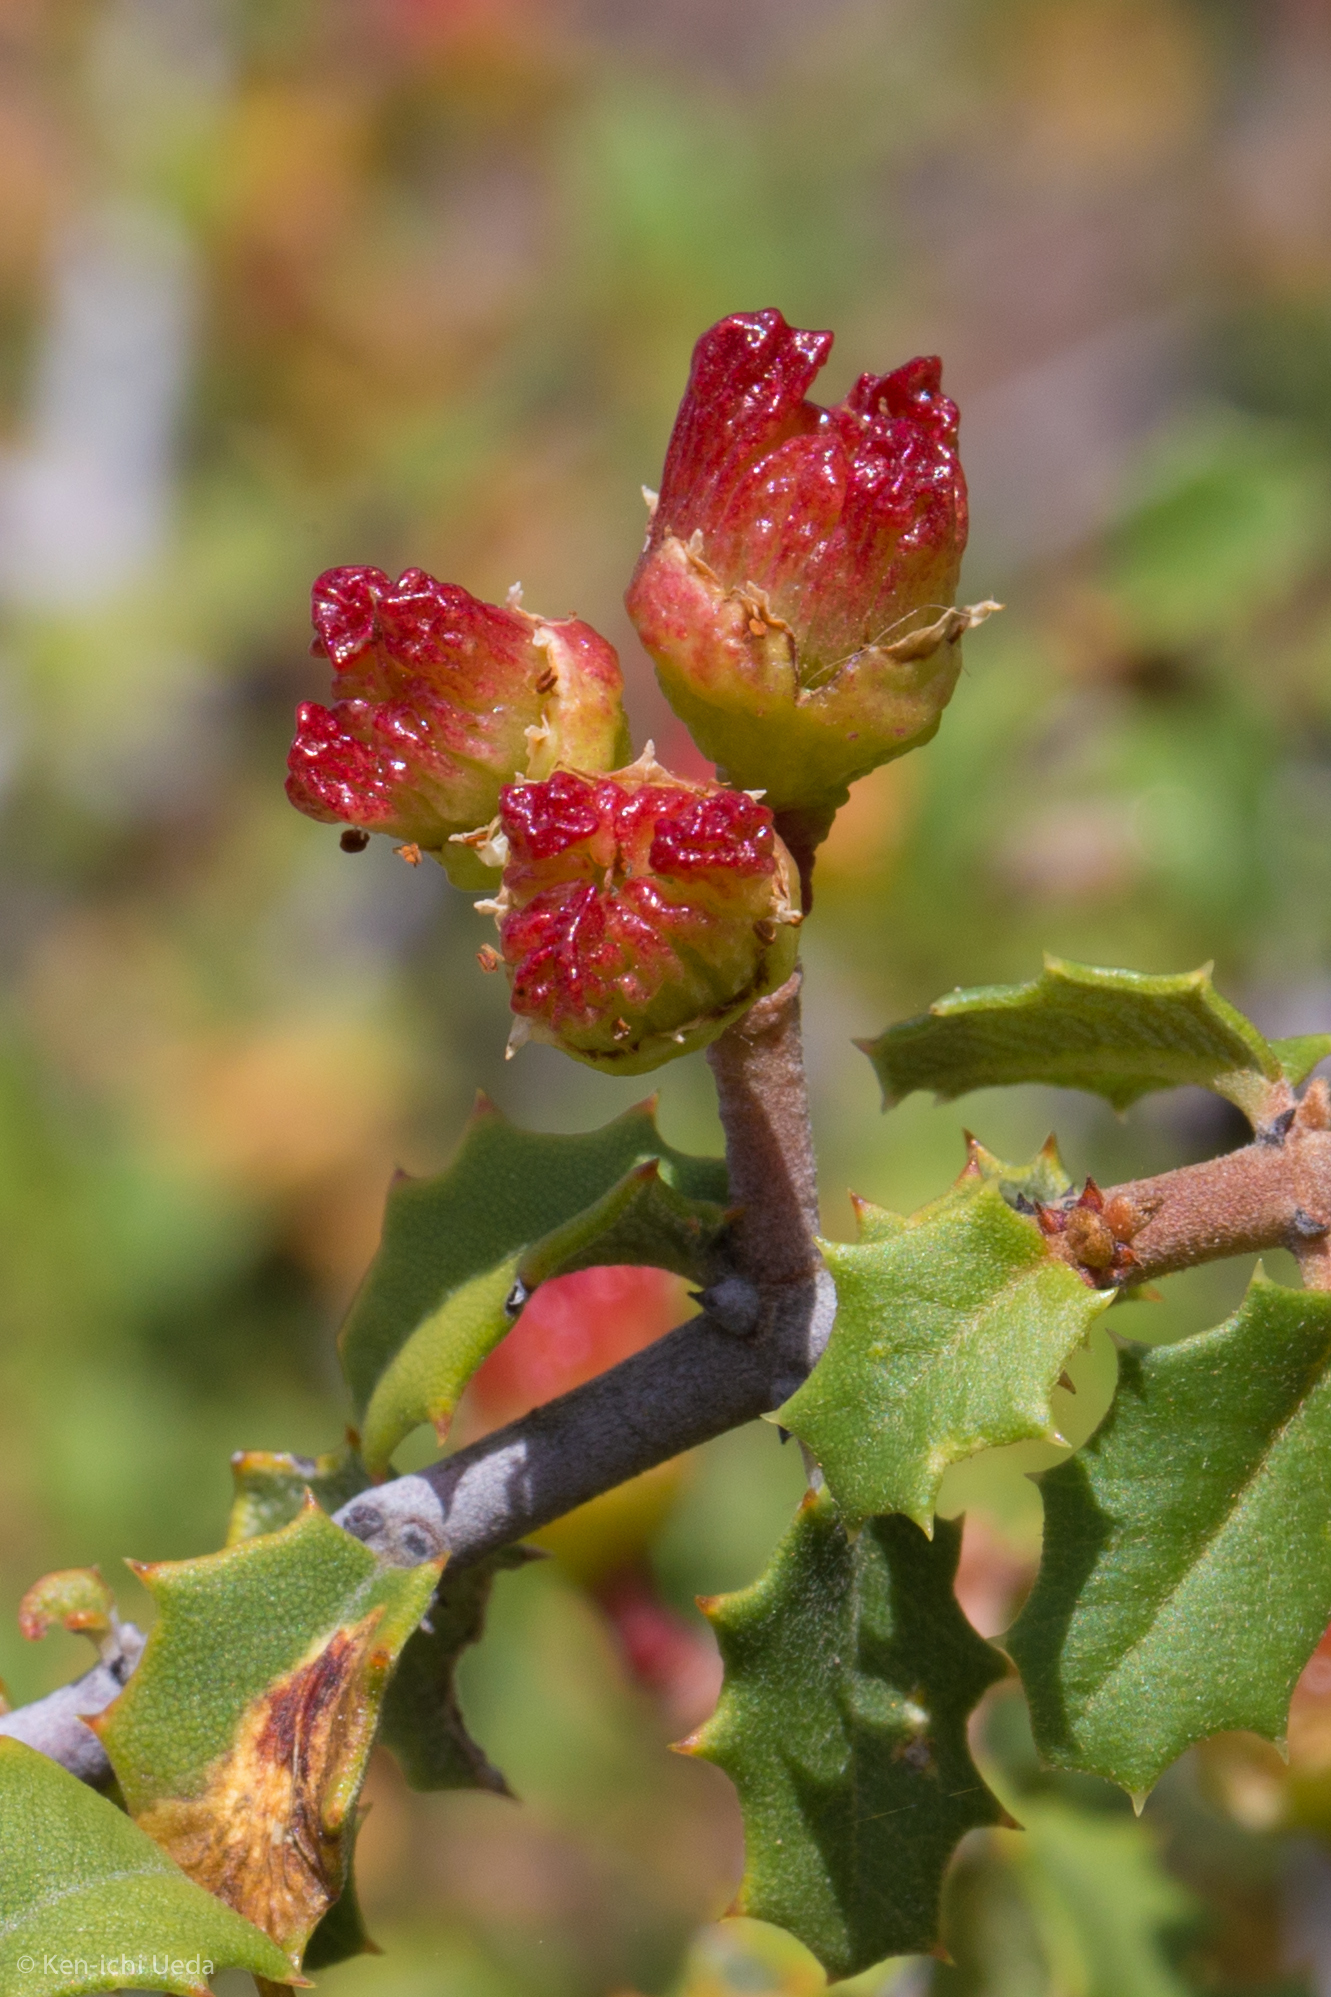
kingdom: Plantae
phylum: Tracheophyta
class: Magnoliopsida
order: Rosales
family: Rhamnaceae
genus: Ceanothus
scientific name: Ceanothus jepsonii
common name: Muskbrush
